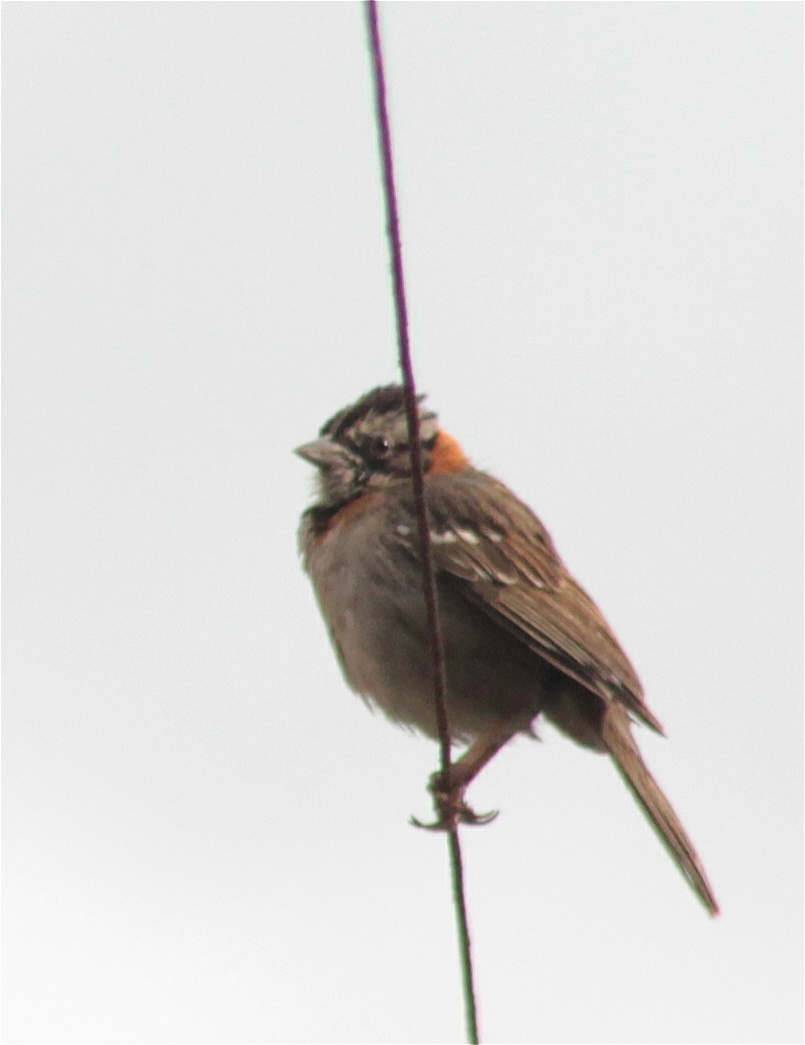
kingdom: Animalia
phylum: Chordata
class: Aves
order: Passeriformes
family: Passerellidae
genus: Zonotrichia
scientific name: Zonotrichia capensis
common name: Rufous-collared sparrow
